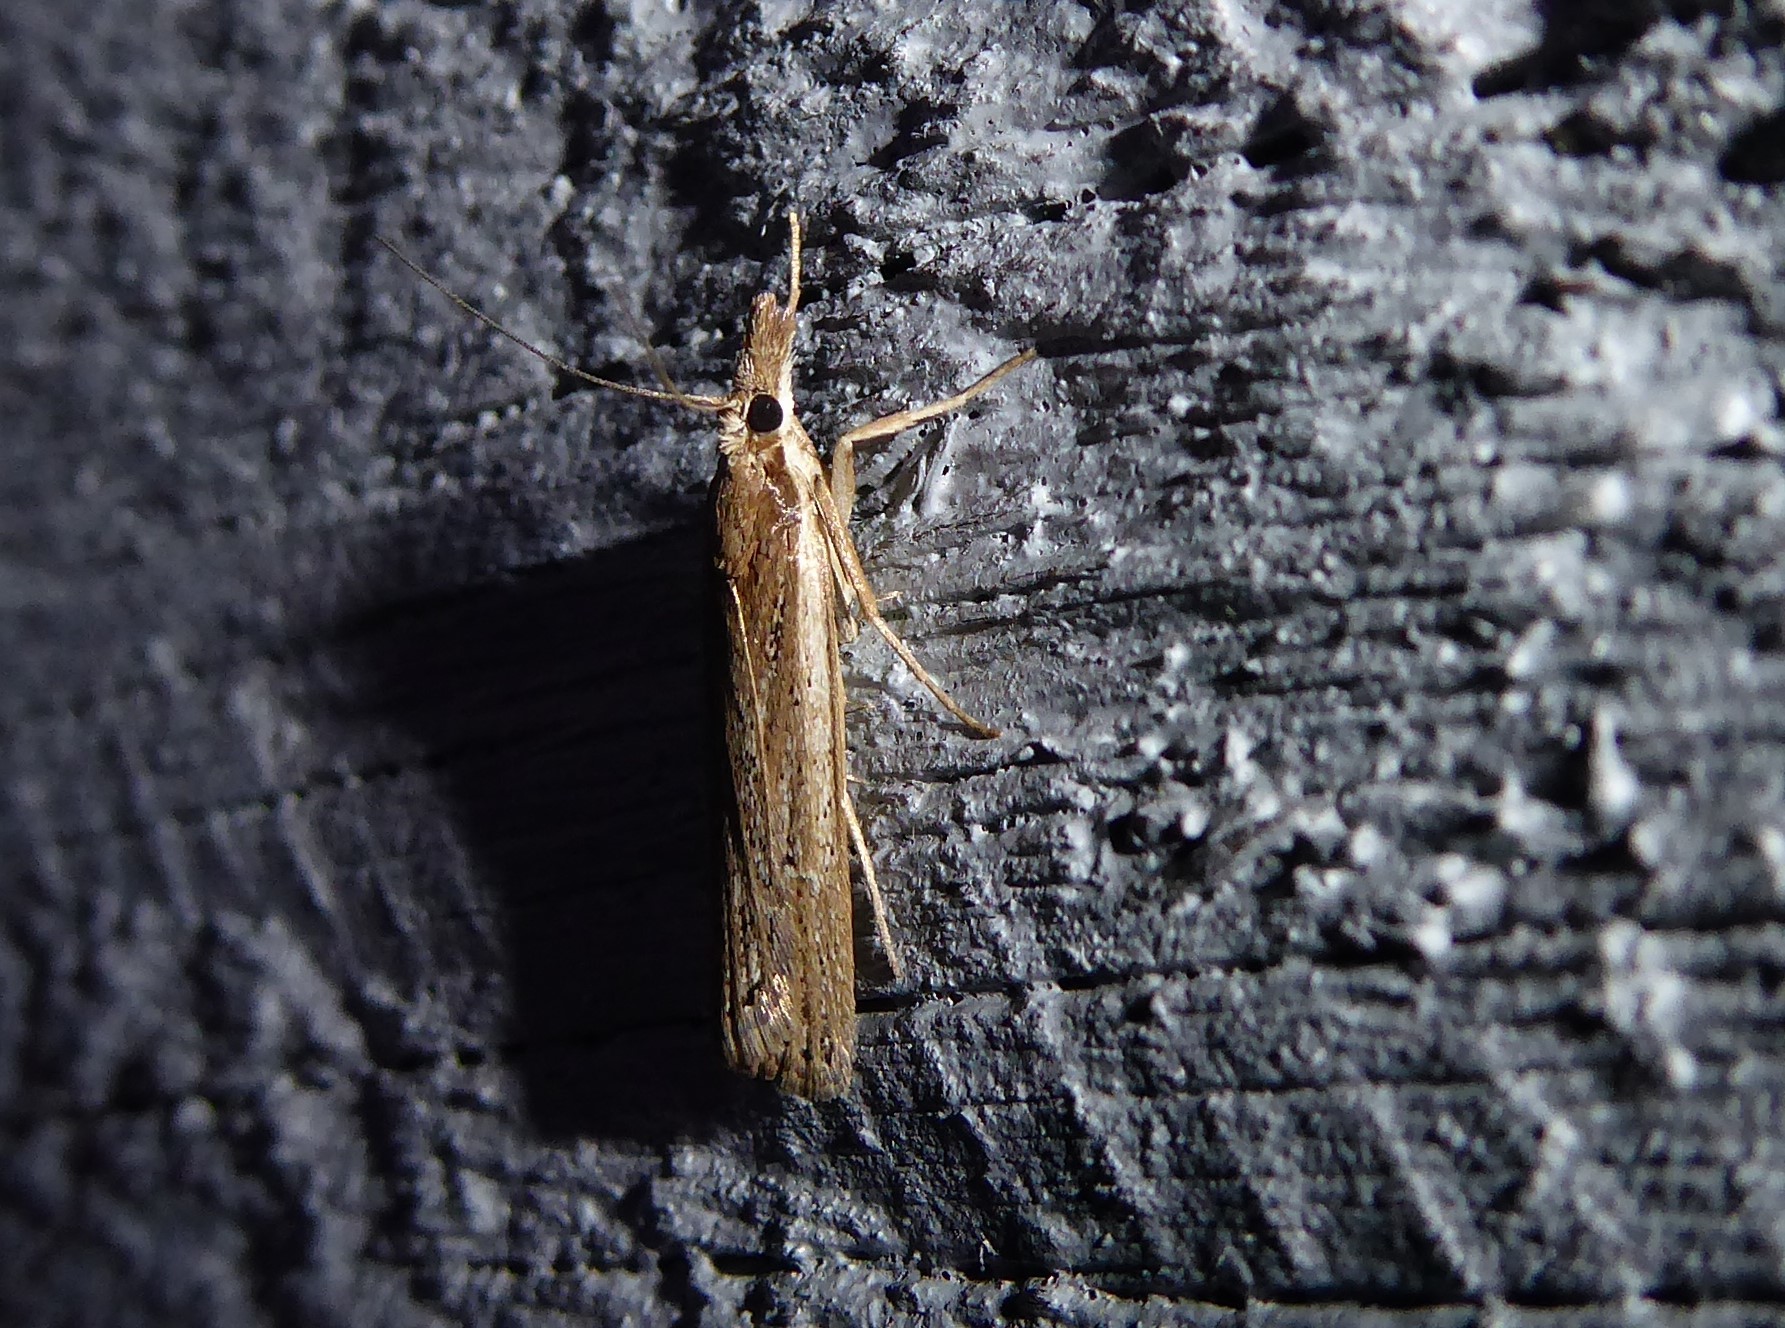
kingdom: Animalia
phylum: Arthropoda
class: Insecta
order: Lepidoptera
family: Crambidae
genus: Eudonia
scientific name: Eudonia sabulosella
